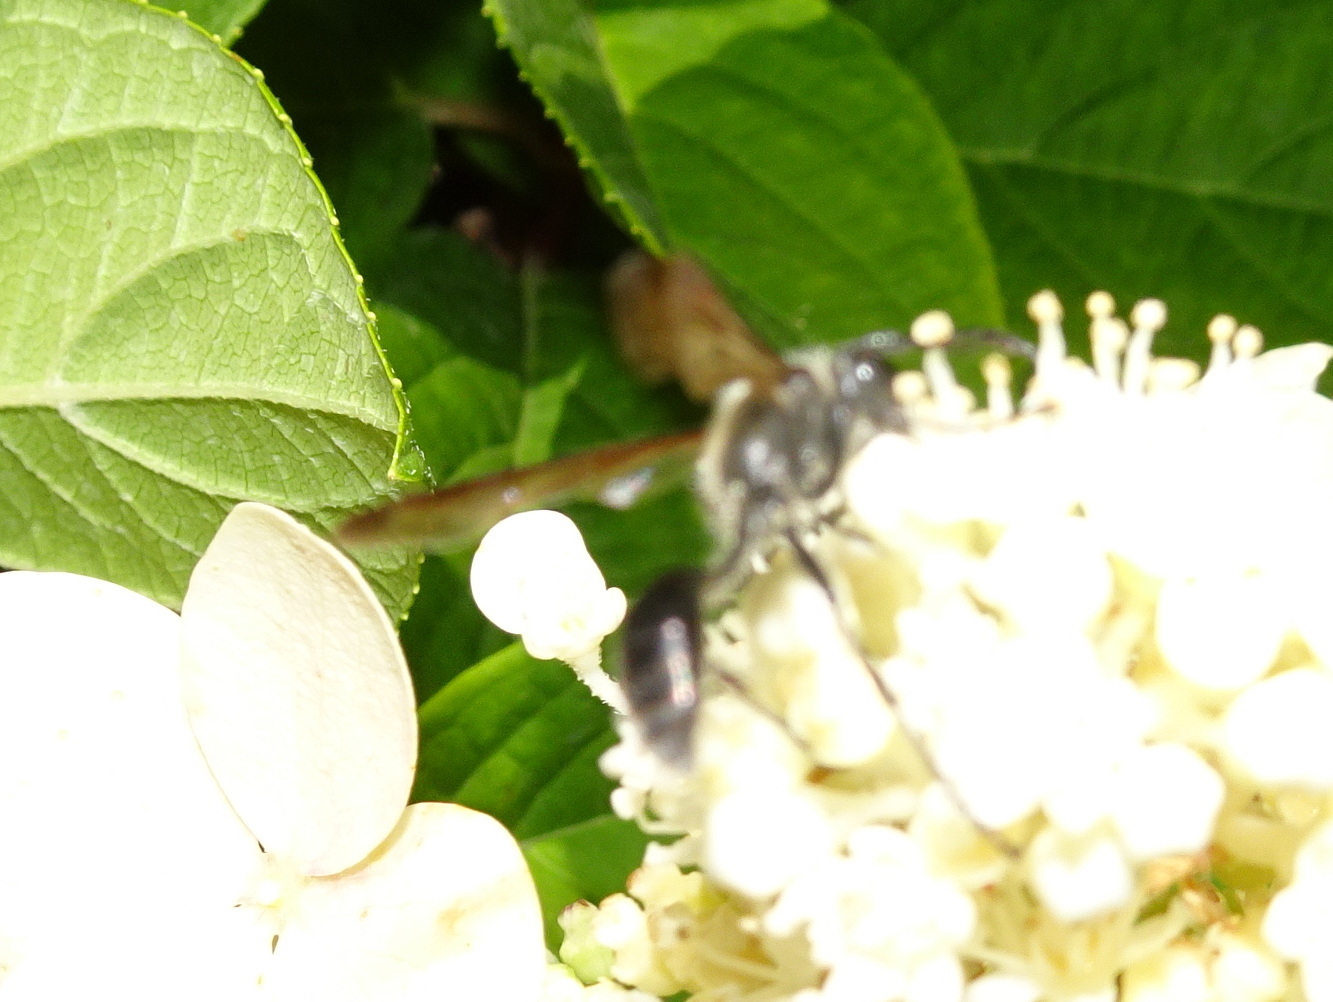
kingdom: Animalia
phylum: Arthropoda
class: Insecta
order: Hymenoptera
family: Sphecidae
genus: Isodontia
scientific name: Isodontia mexicana
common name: Mud dauber
